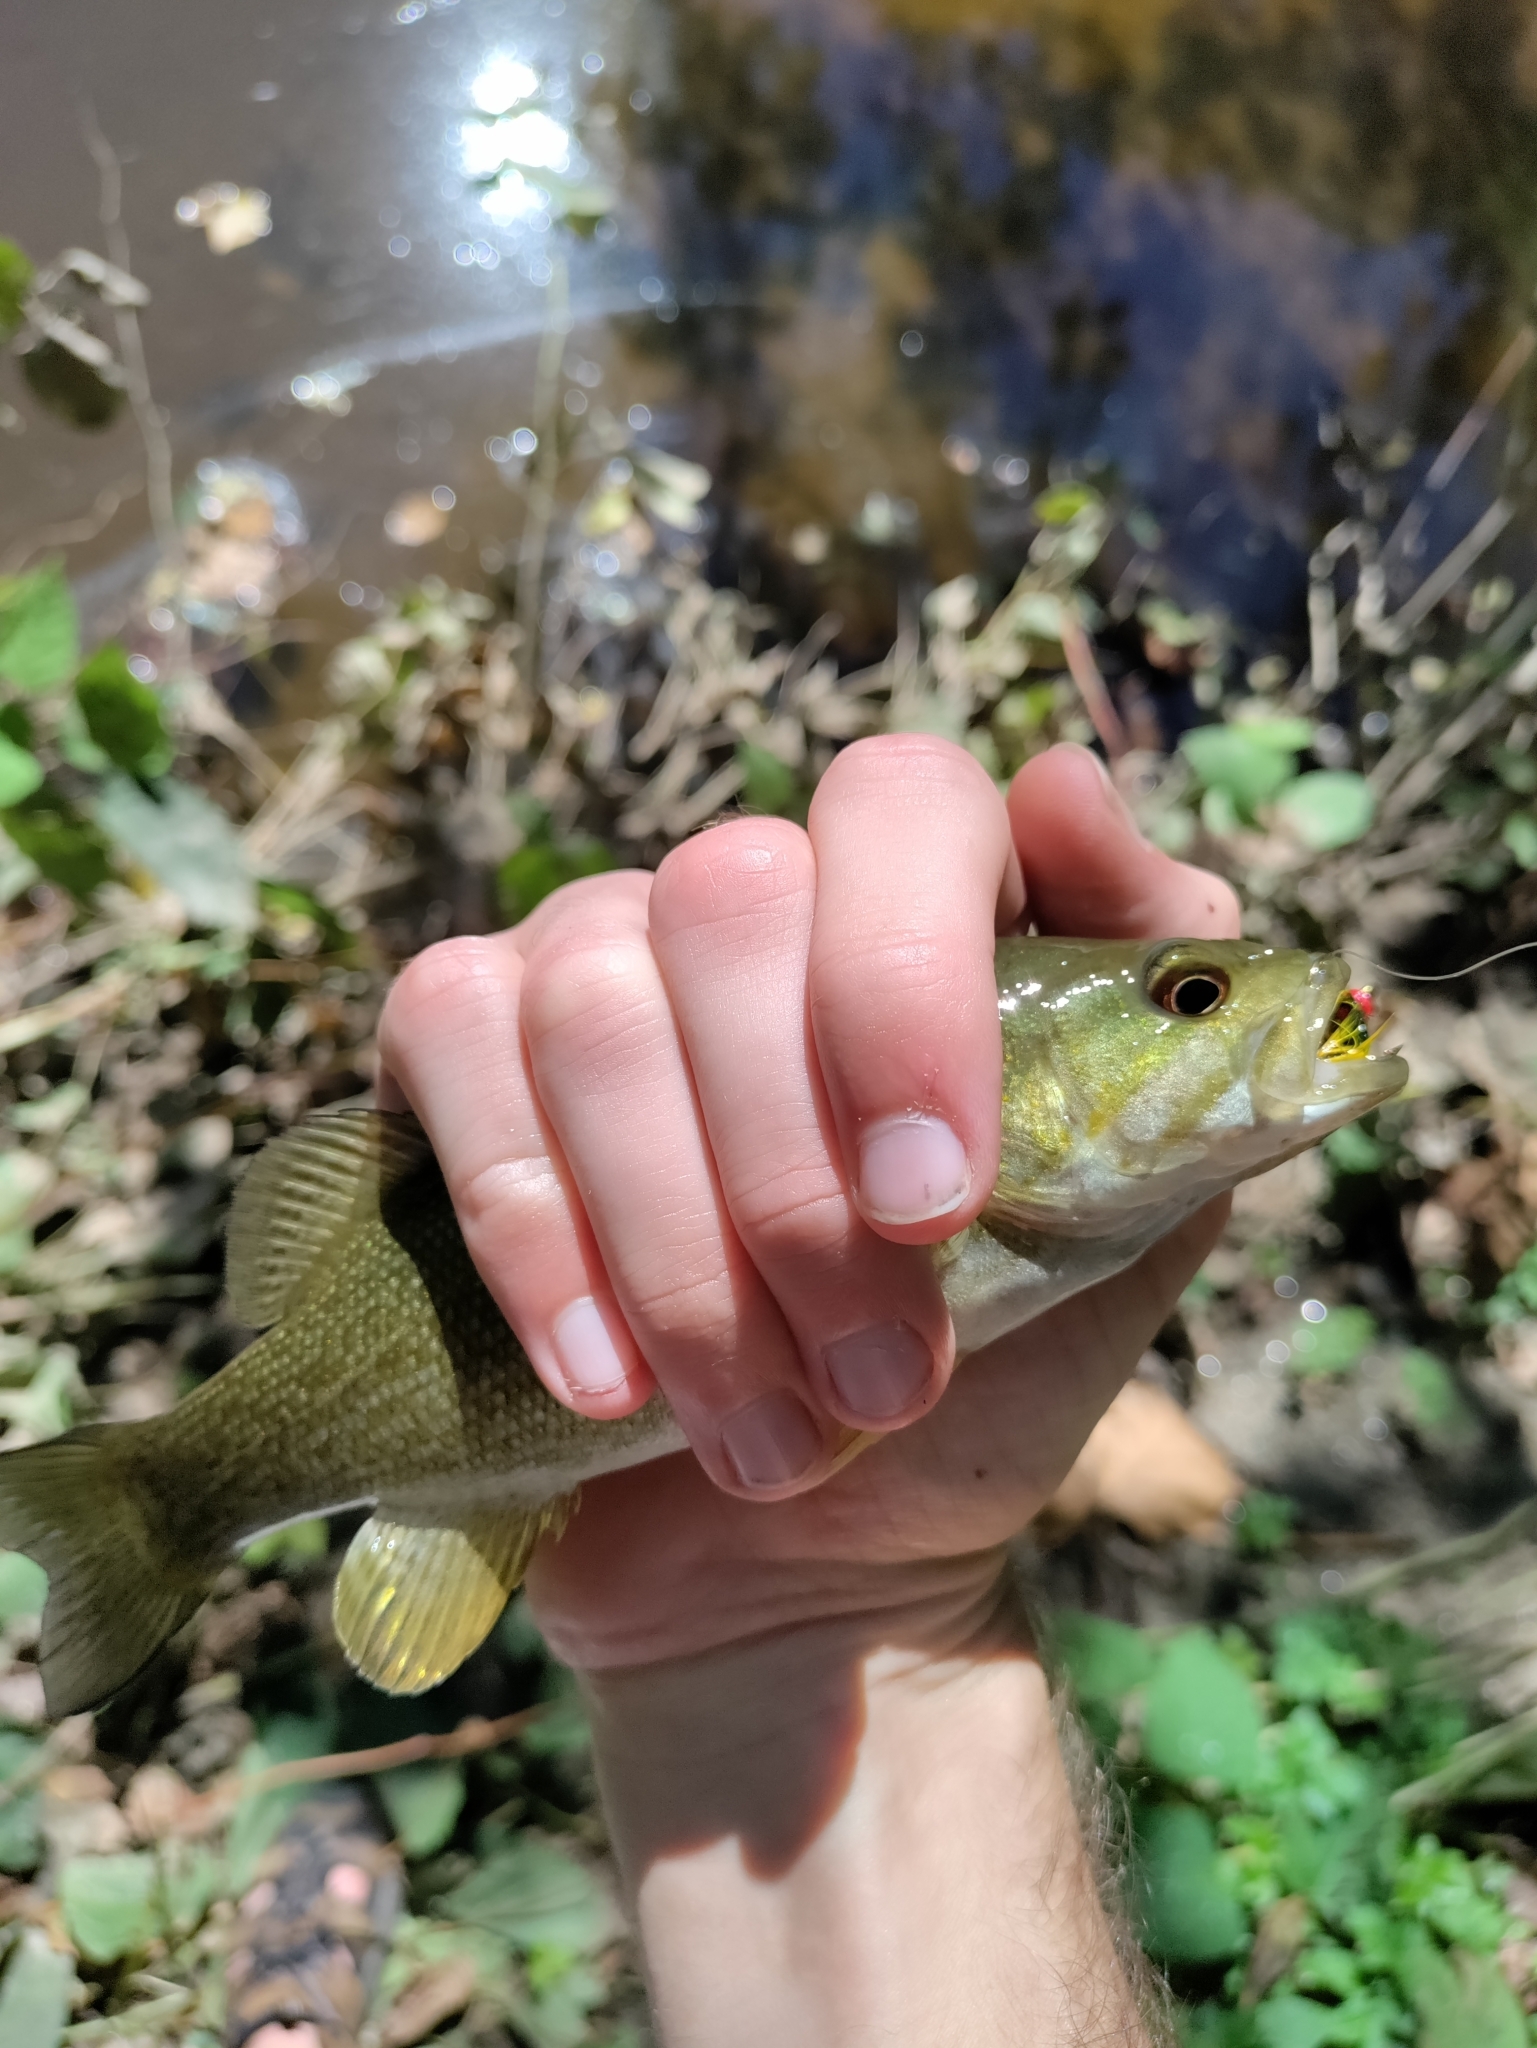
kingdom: Animalia
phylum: Chordata
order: Perciformes
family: Centrarchidae
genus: Micropterus
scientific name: Micropterus dolomieu
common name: Smallmouth bass
